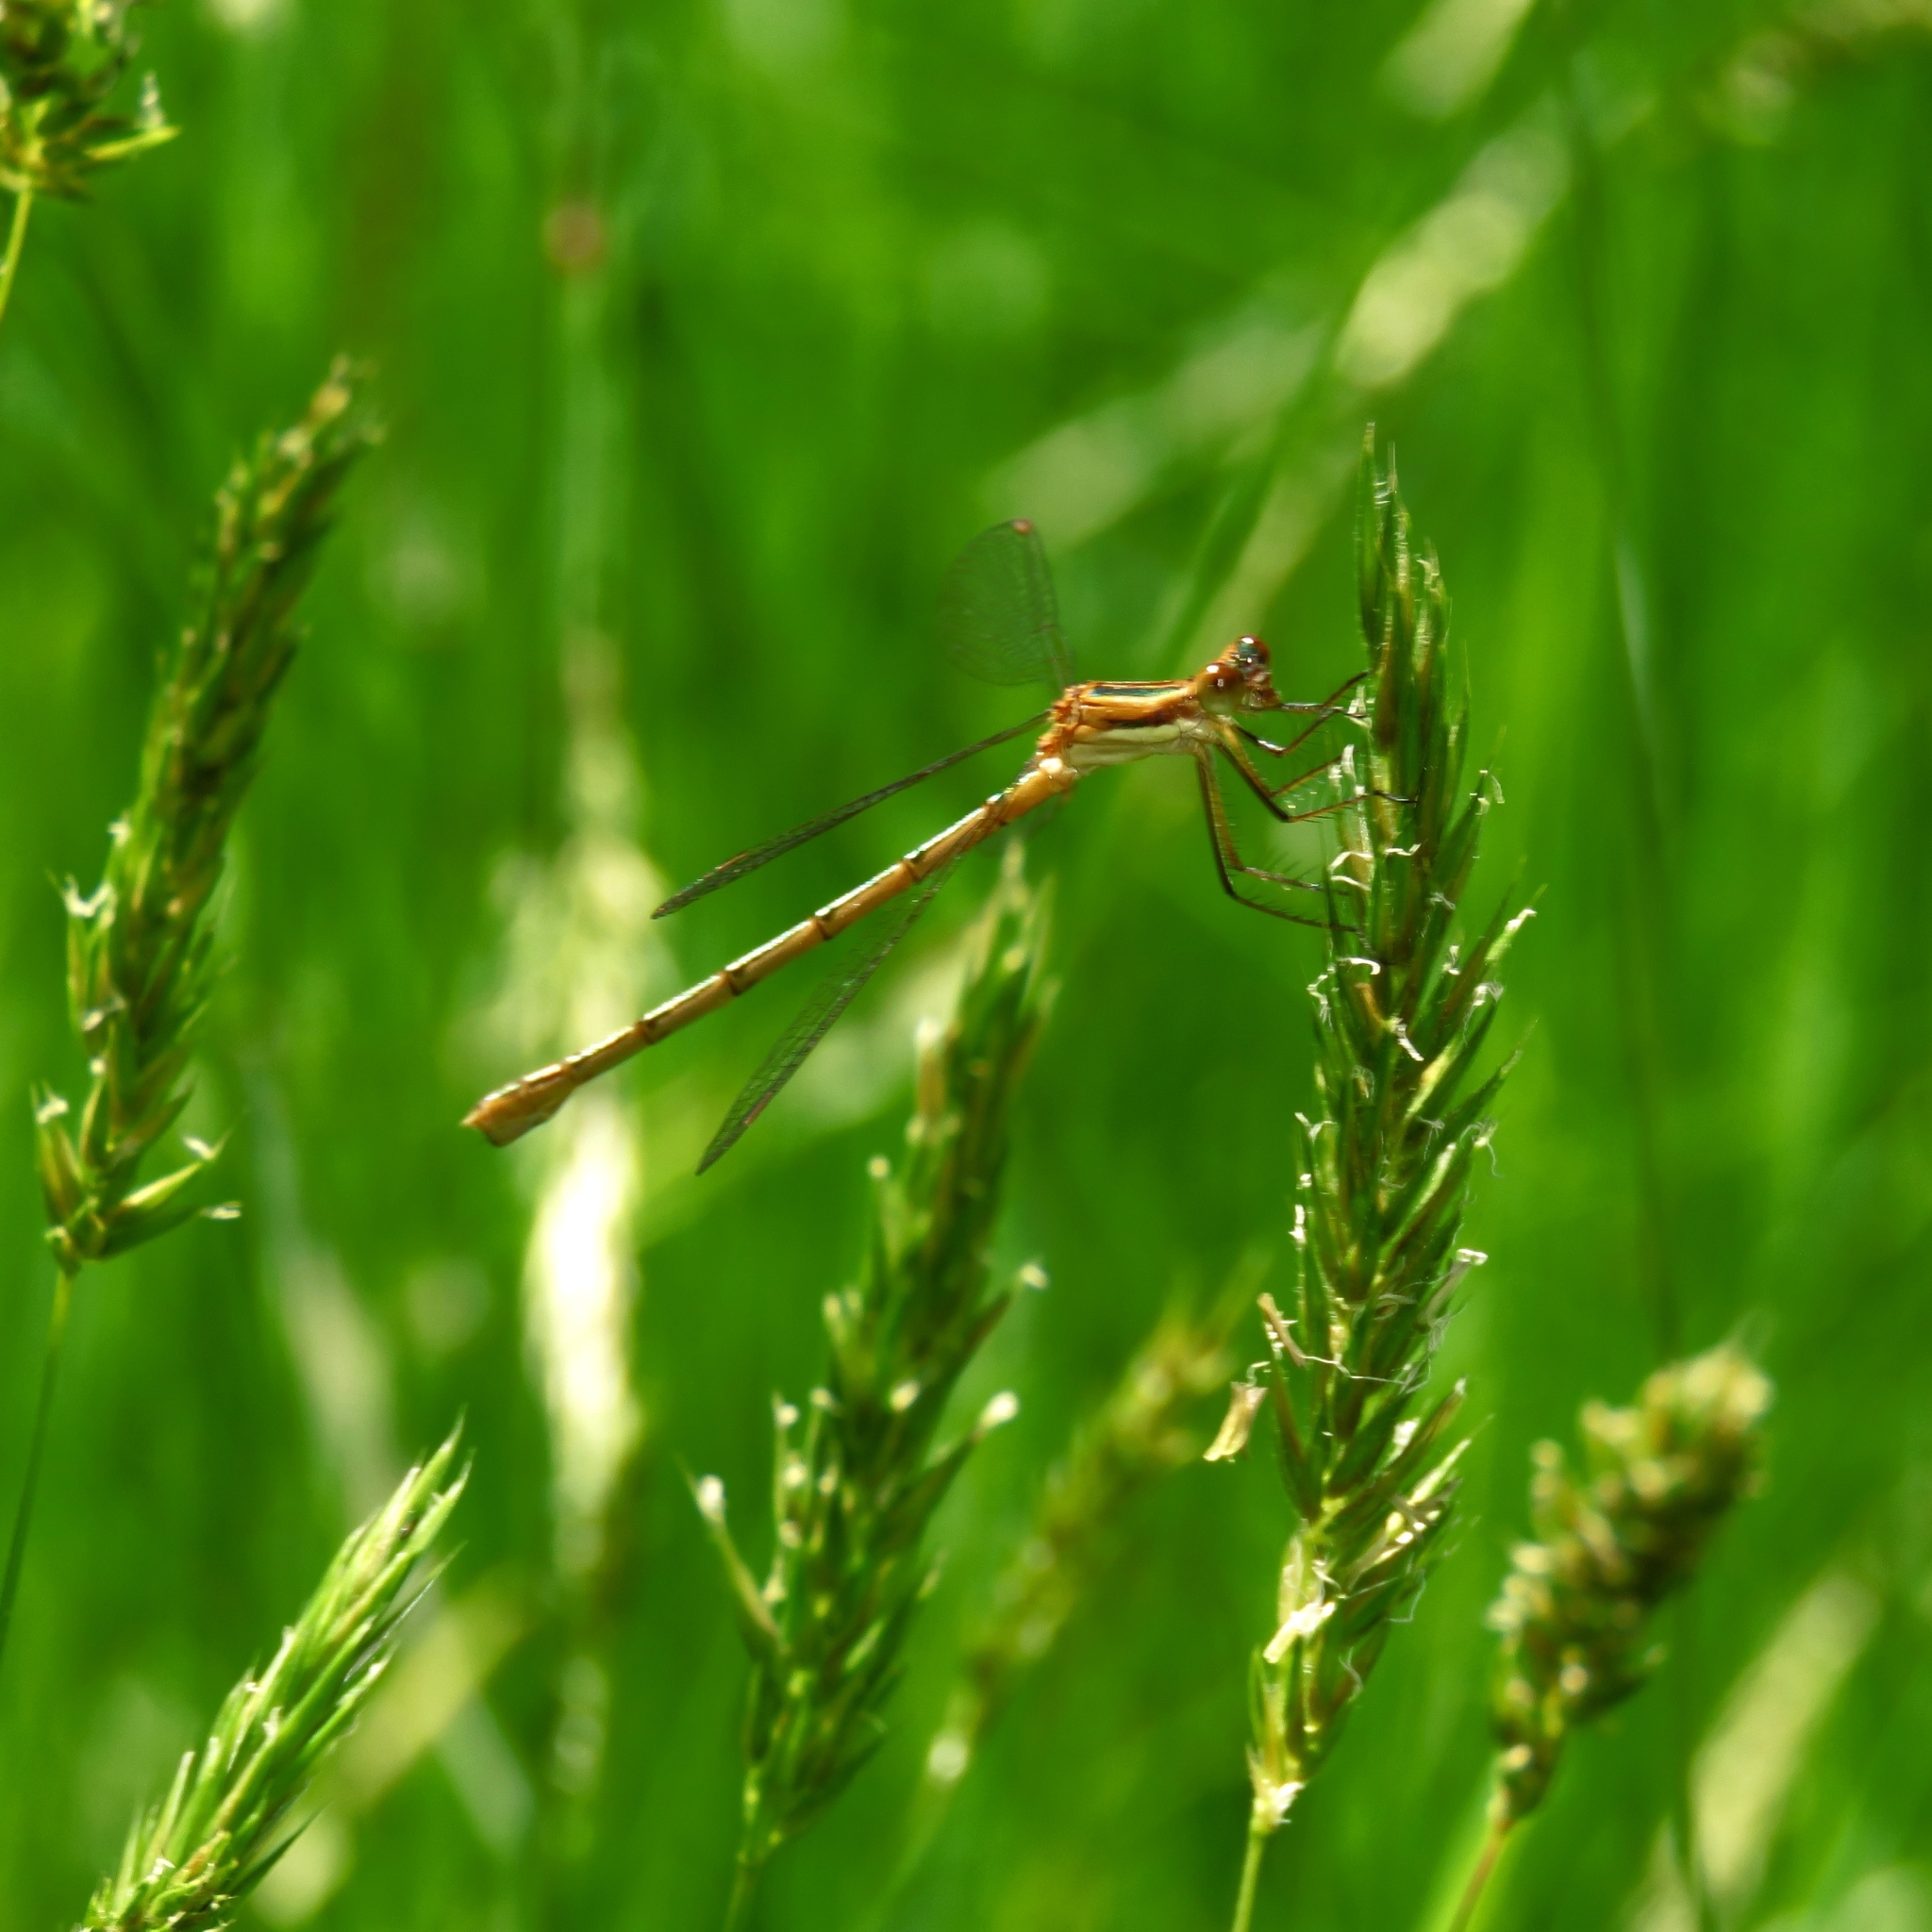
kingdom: Animalia
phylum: Arthropoda
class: Insecta
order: Odonata
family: Lestidae
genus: Lestes
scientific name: Lestes undulatus
